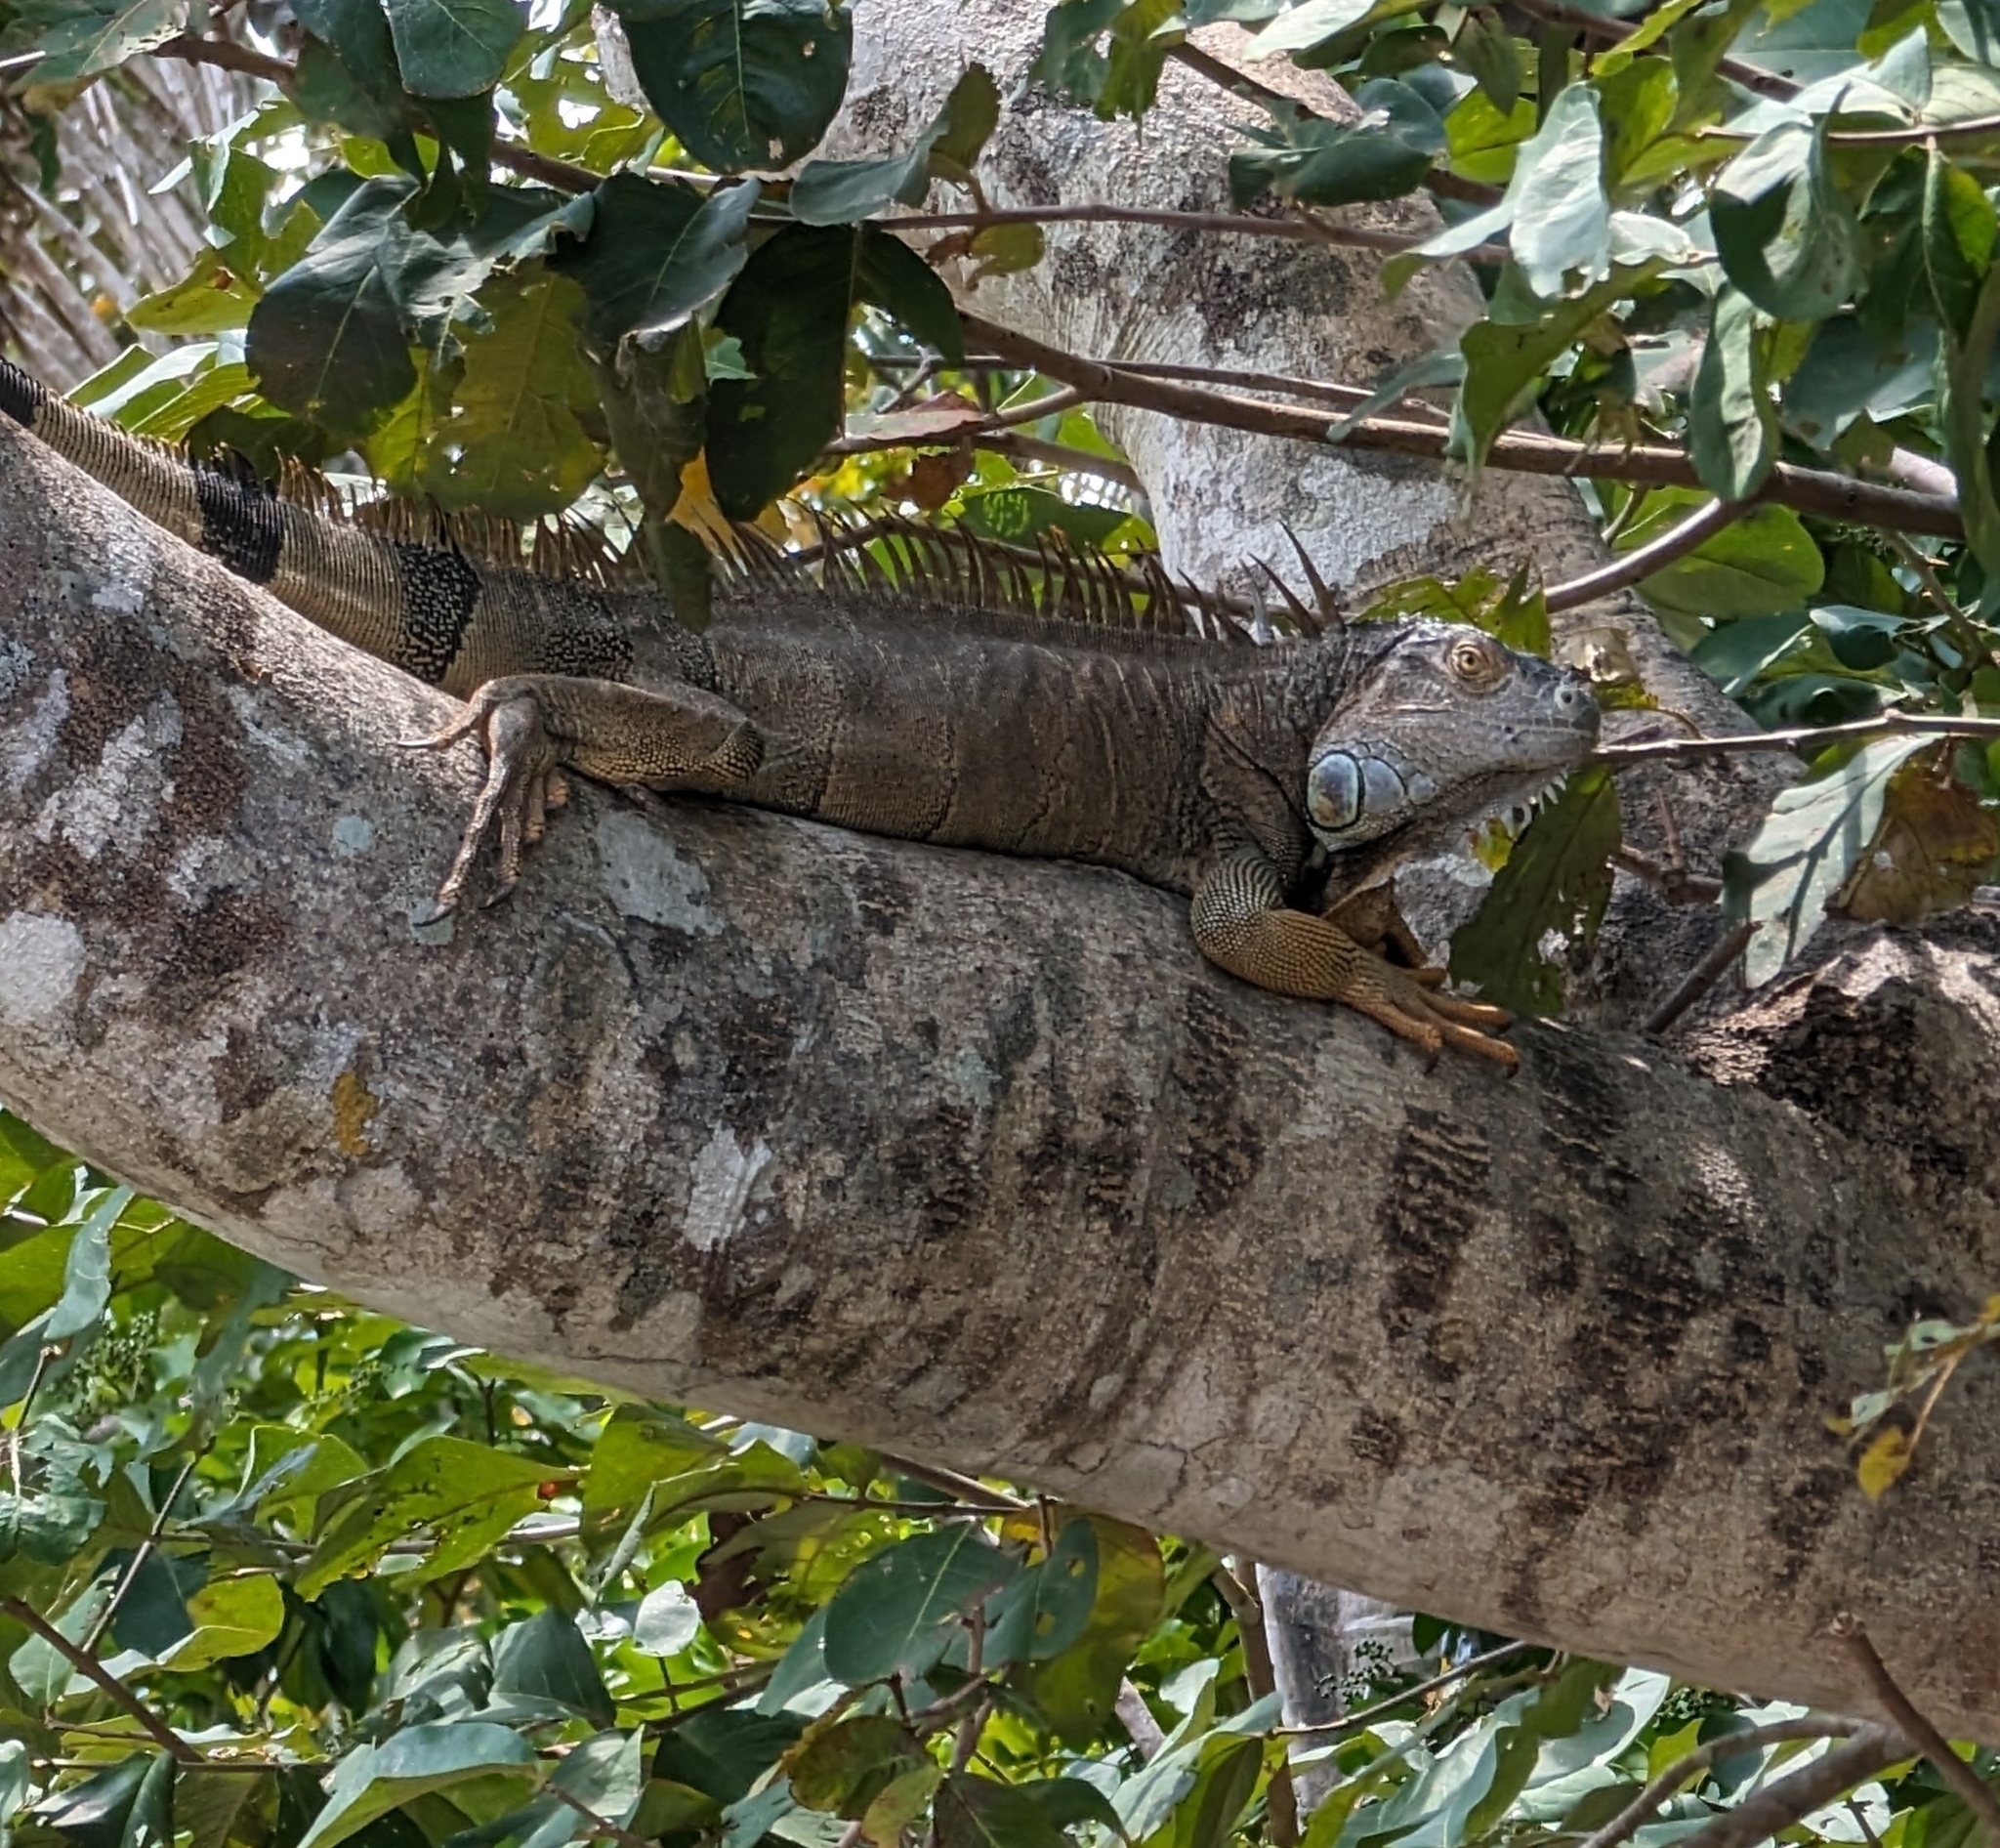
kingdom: Animalia
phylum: Chordata
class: Squamata
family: Iguanidae
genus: Iguana
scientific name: Iguana iguana
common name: Green iguana
